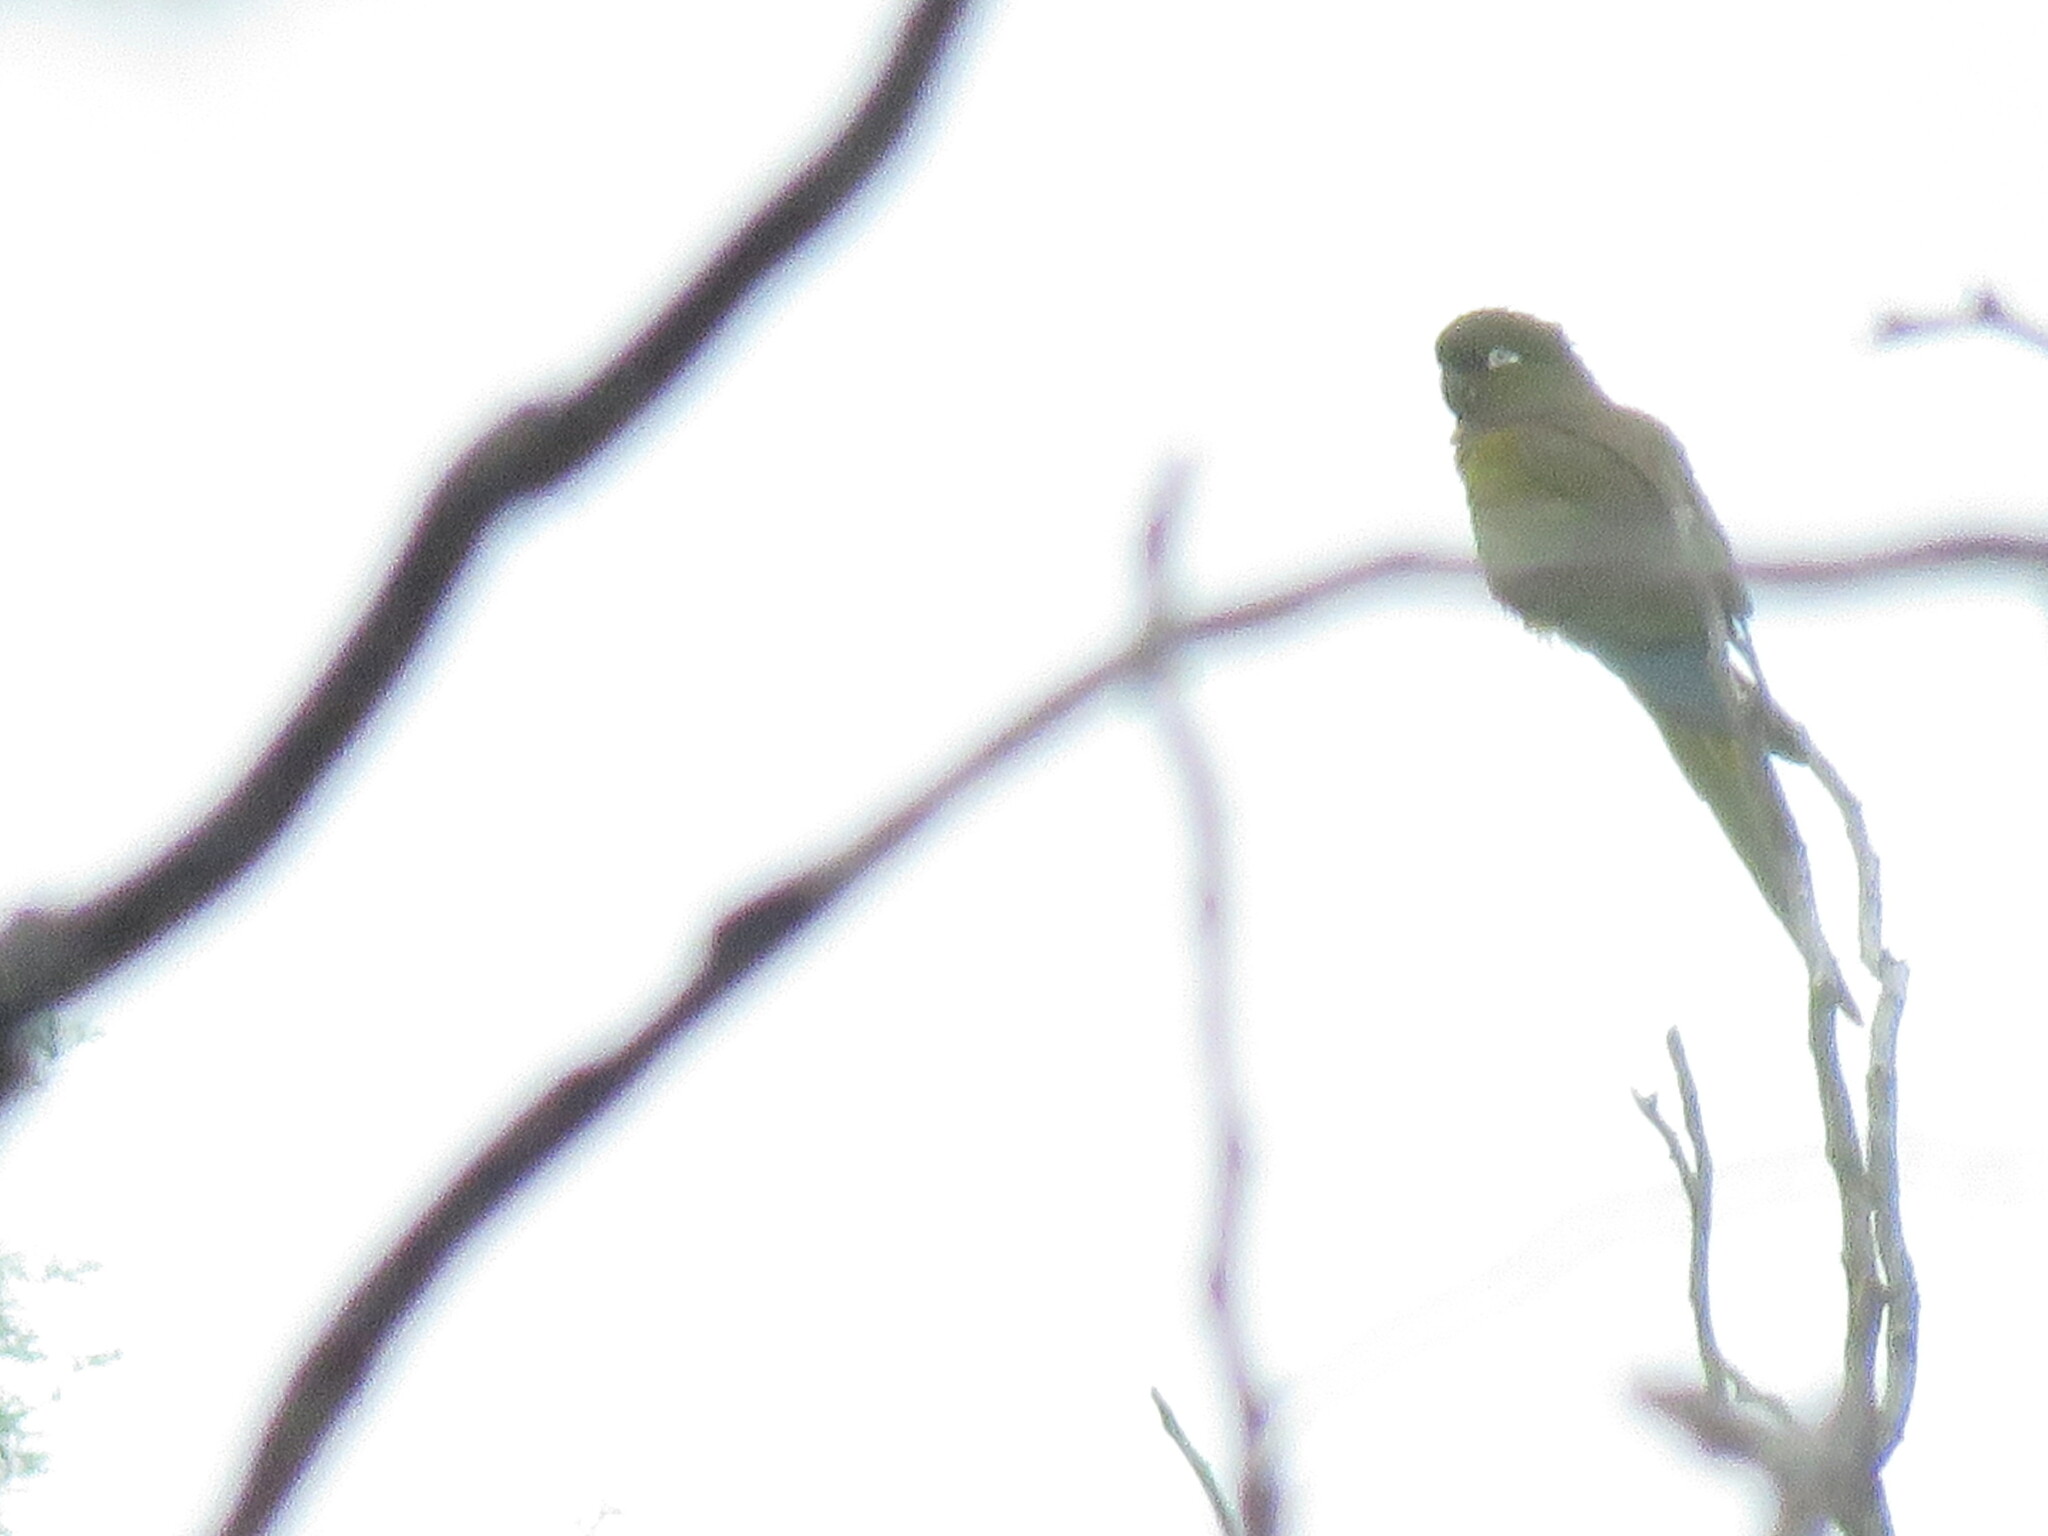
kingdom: Animalia
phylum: Chordata
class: Aves
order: Psittaciformes
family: Psittacidae
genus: Cyanoliseus
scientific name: Cyanoliseus patagonus
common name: Burrowing parrot
